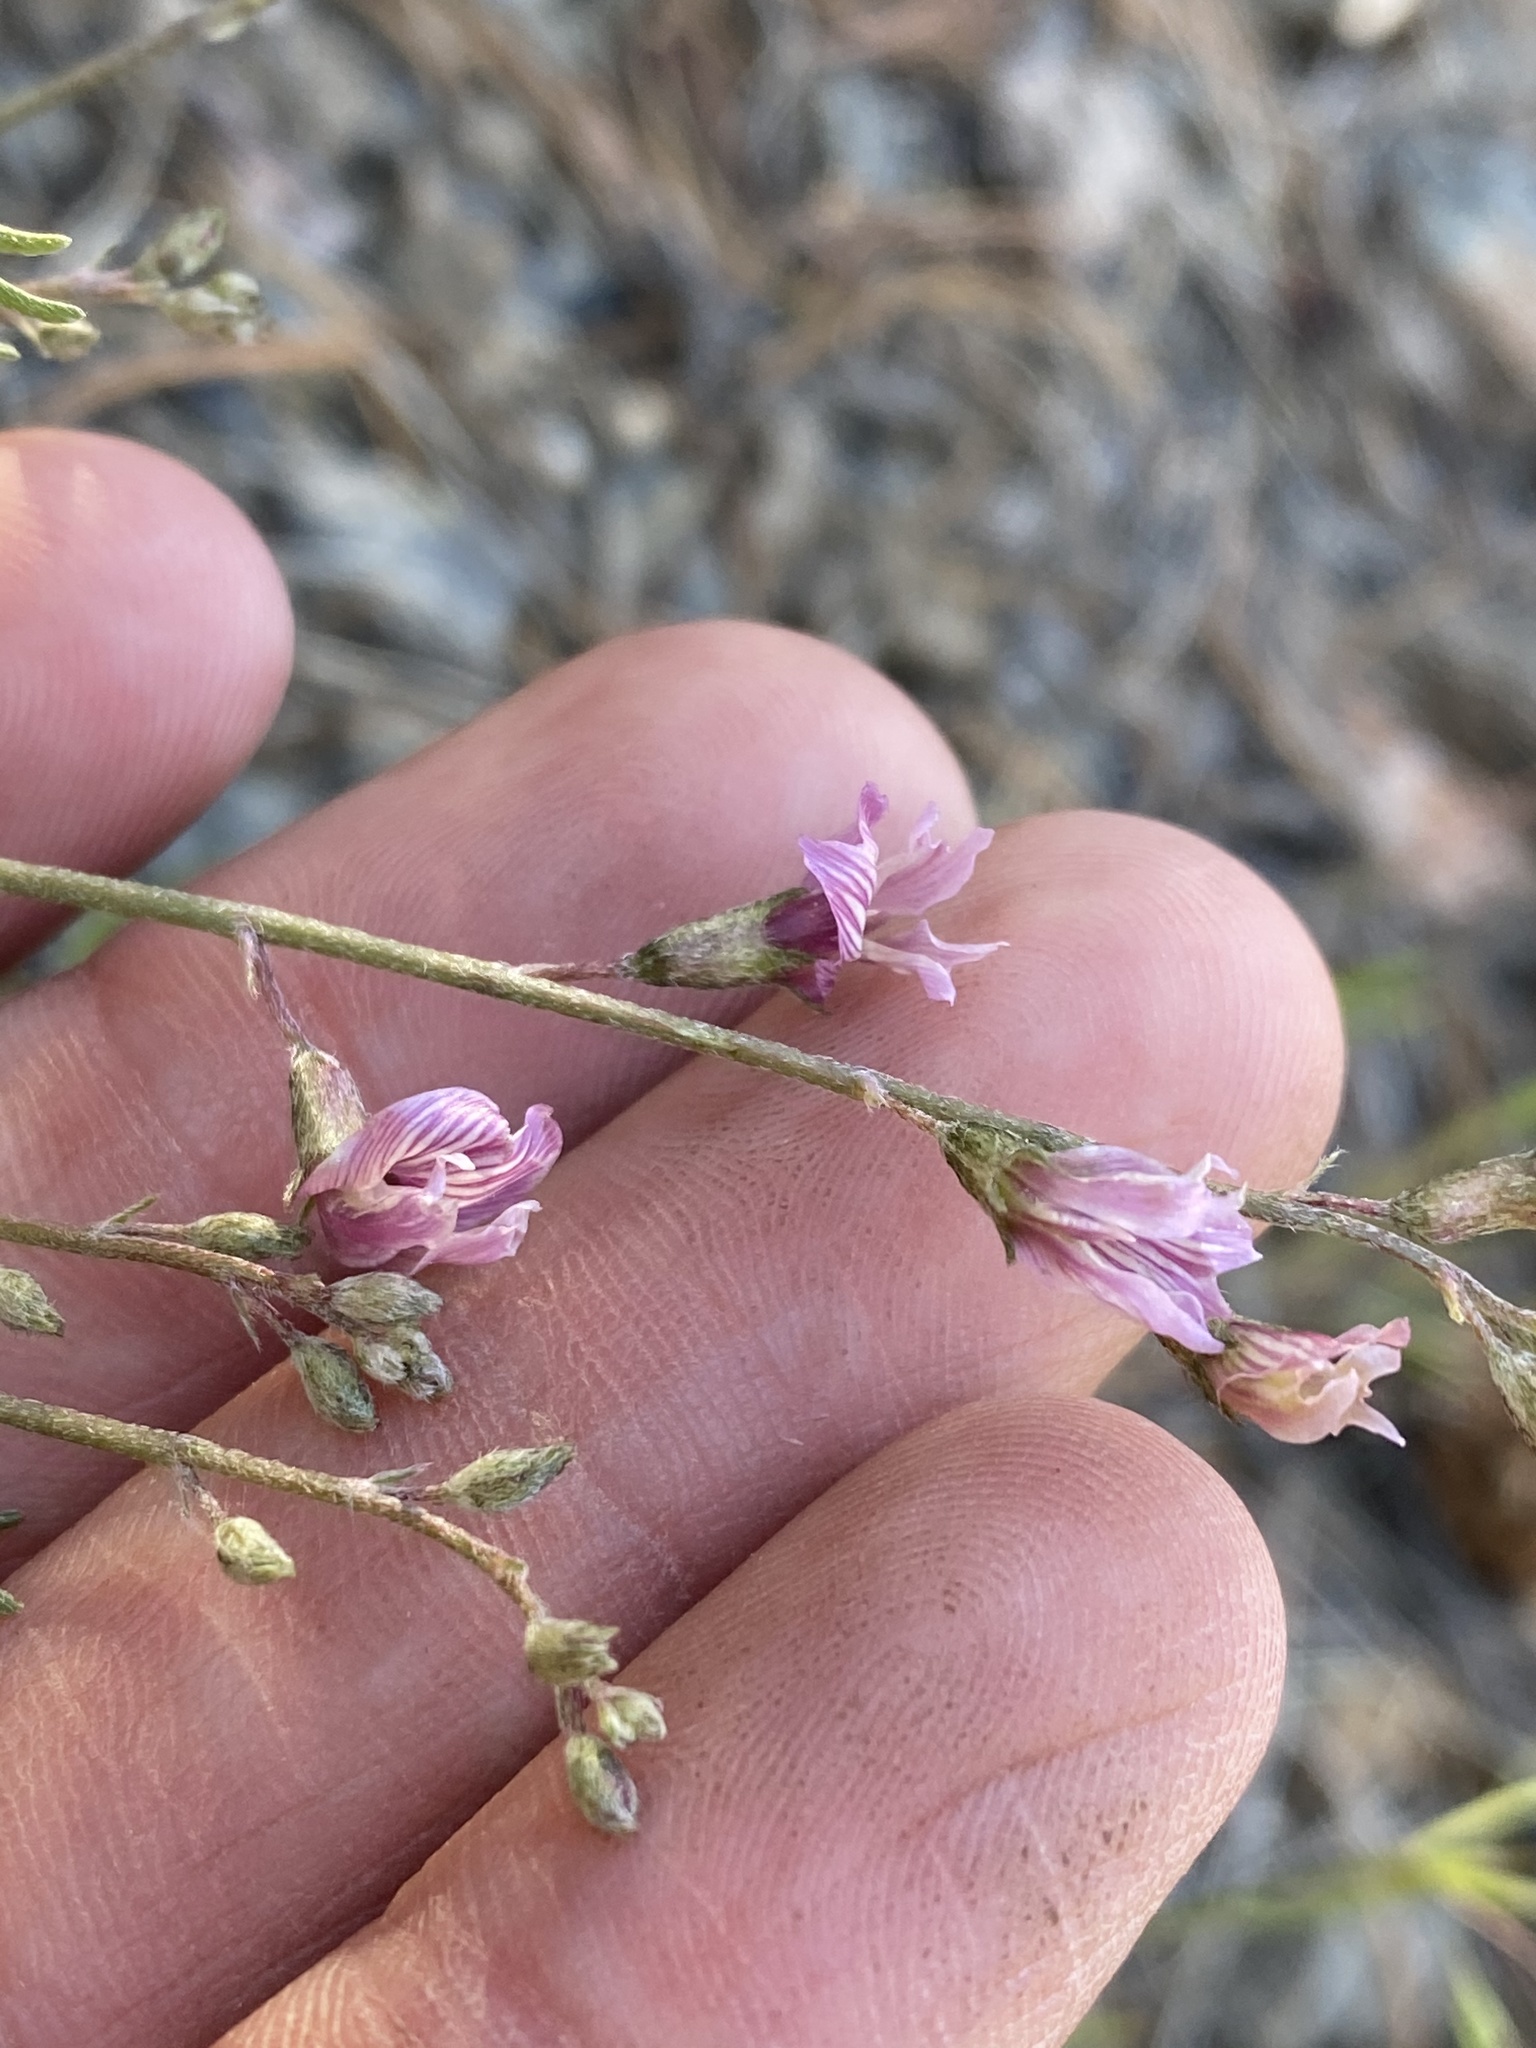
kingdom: Plantae
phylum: Tracheophyta
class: Magnoliopsida
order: Fabales
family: Fabaceae
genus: Astragalus
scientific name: Astragalus atratus
